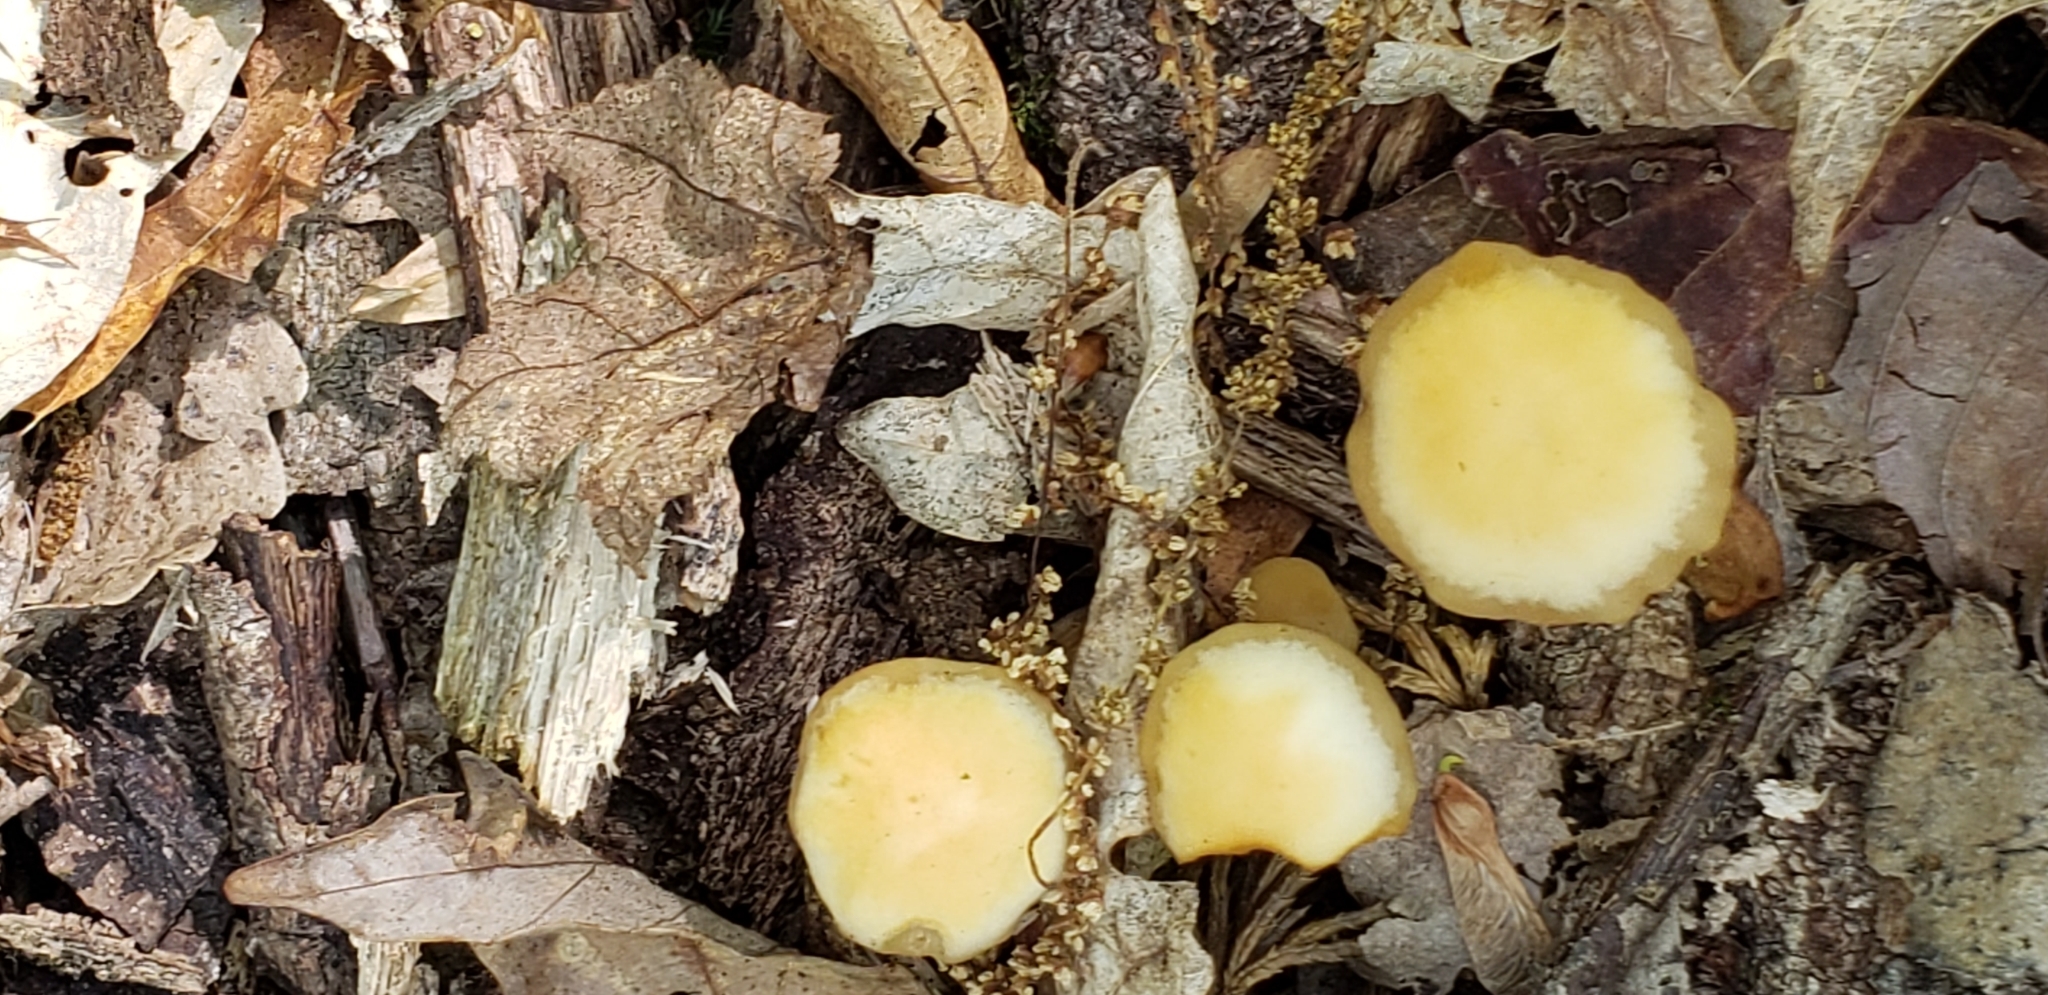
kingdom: Fungi
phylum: Basidiomycota
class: Agaricomycetes
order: Agaricales
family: Strophariaceae
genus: Kuehneromyces
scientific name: Kuehneromyces marginellus
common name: Sheathed woodtuft
